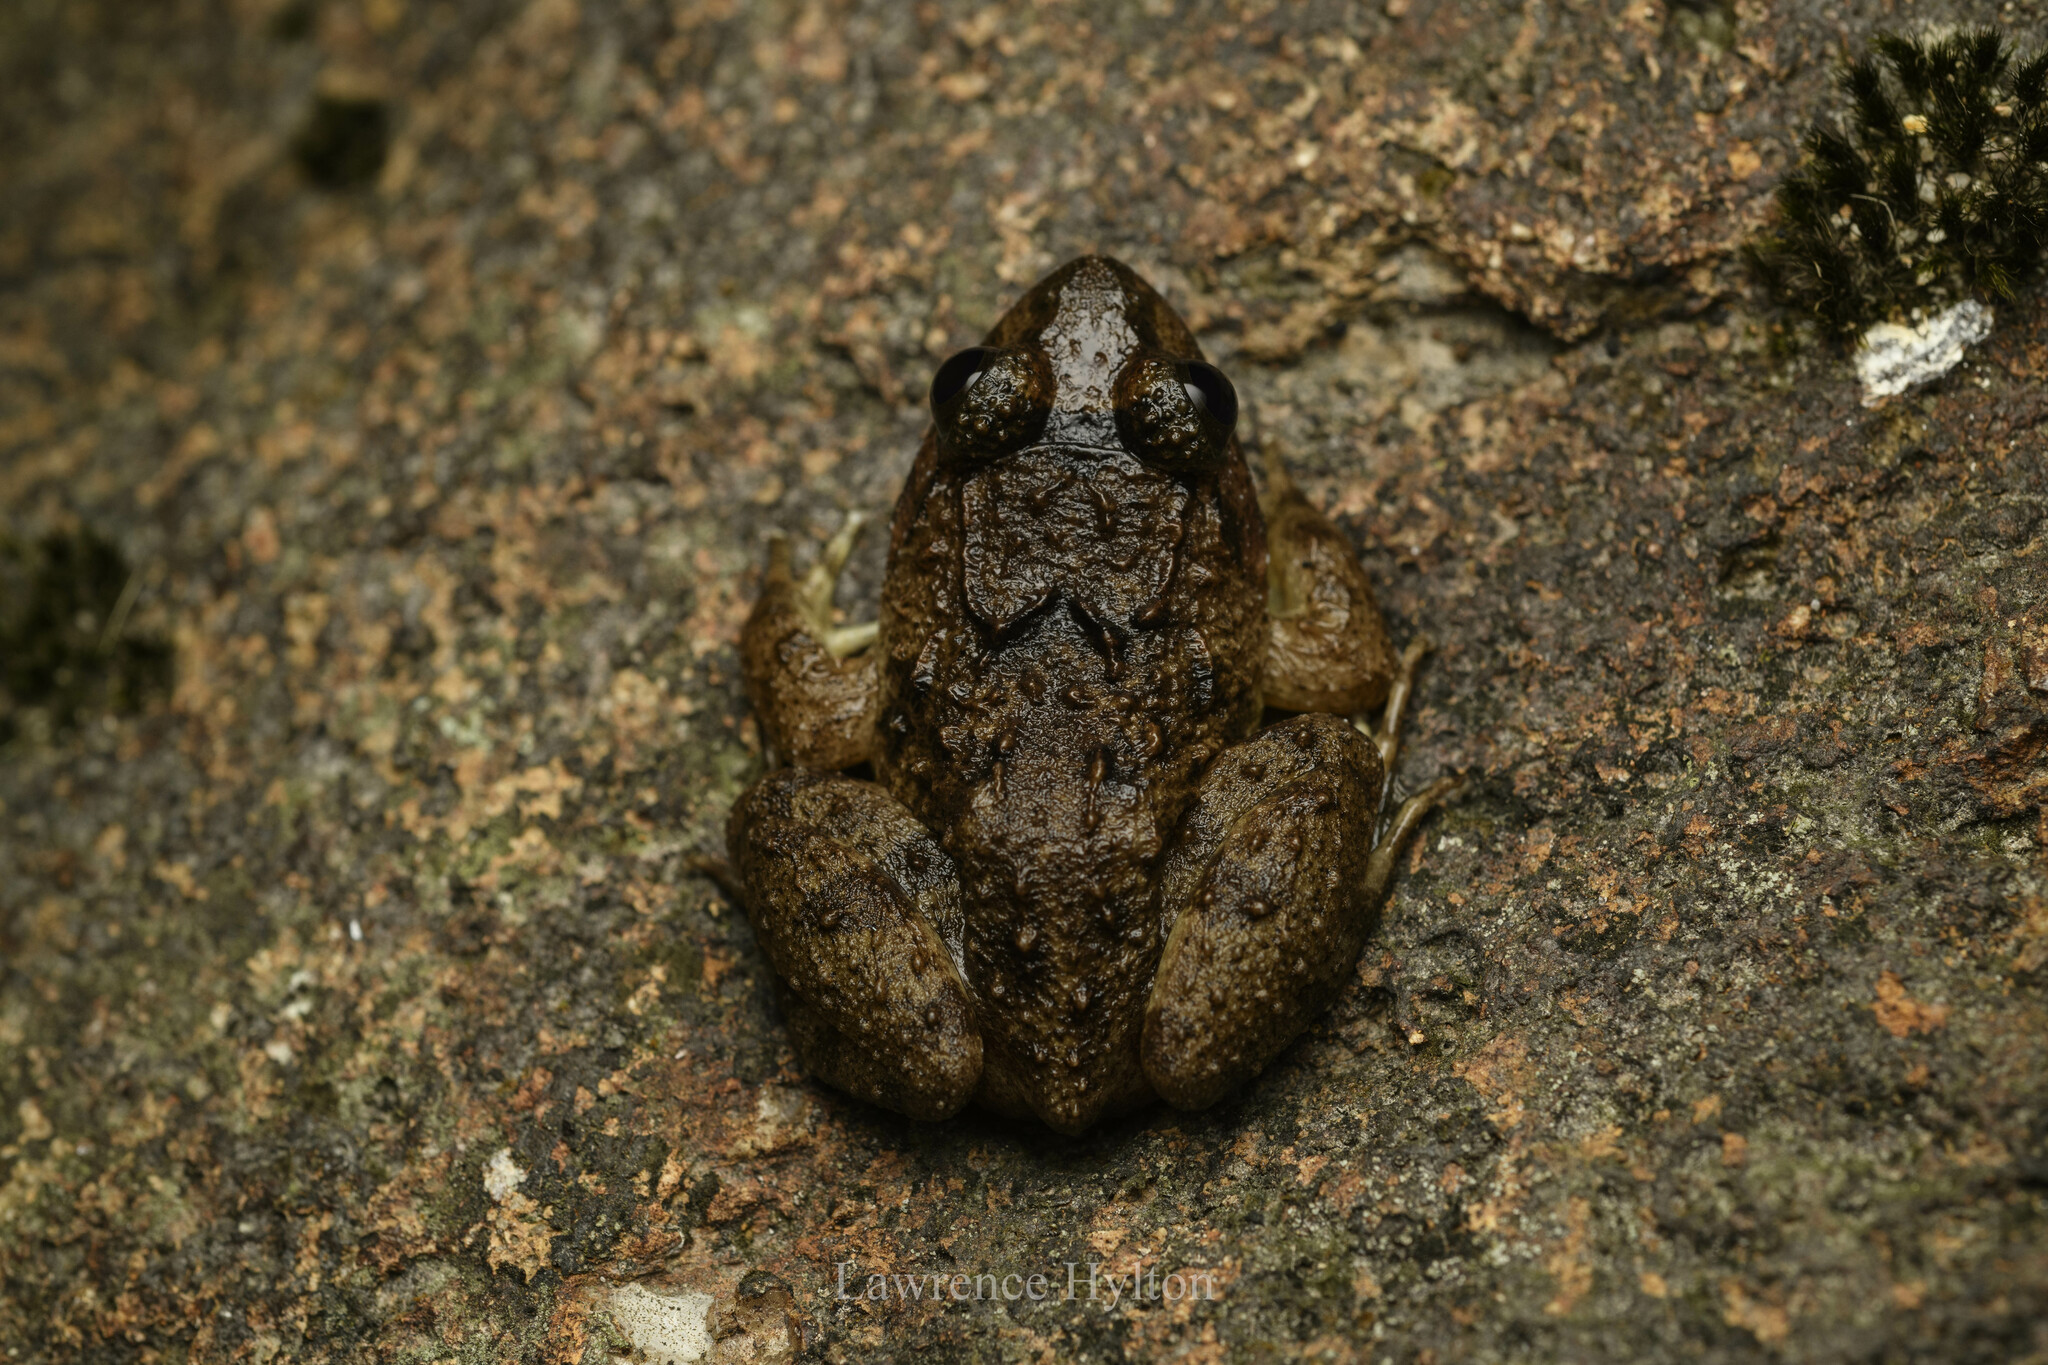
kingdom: Animalia
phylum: Chordata
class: Amphibia
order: Anura
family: Dicroglossidae
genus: Limnonectes
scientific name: Limnonectes fujianensis
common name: Fujian large-headed frog
